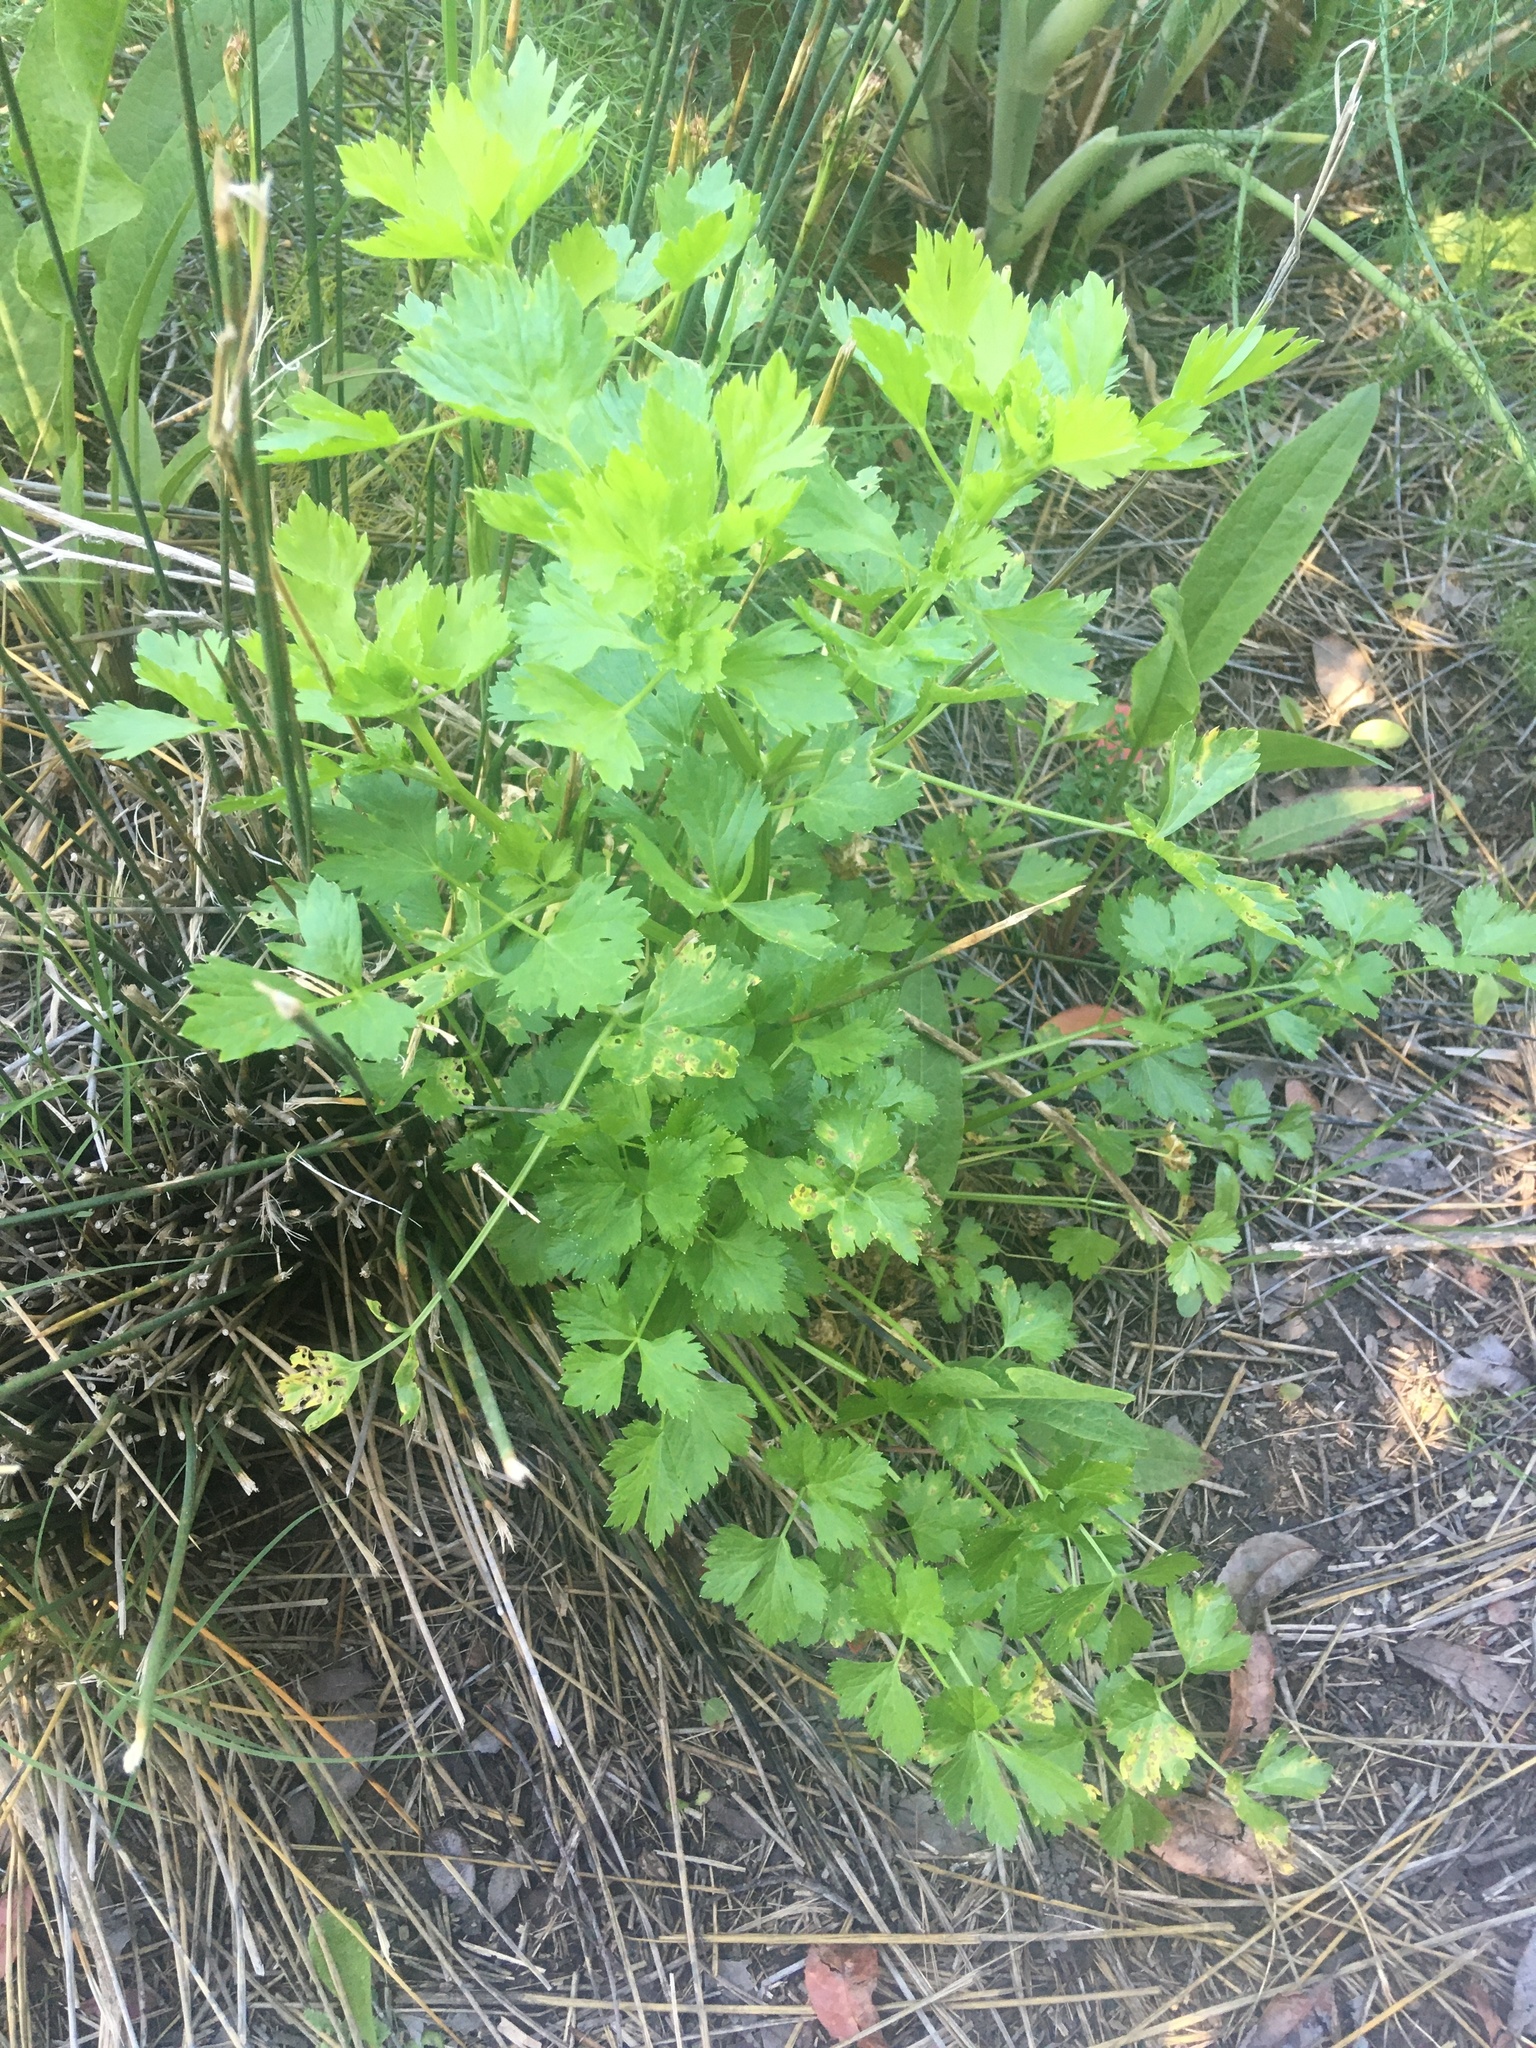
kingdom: Plantae
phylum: Tracheophyta
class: Magnoliopsida
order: Apiales
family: Apiaceae
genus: Apium
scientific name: Apium graveolens
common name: Wild celery
